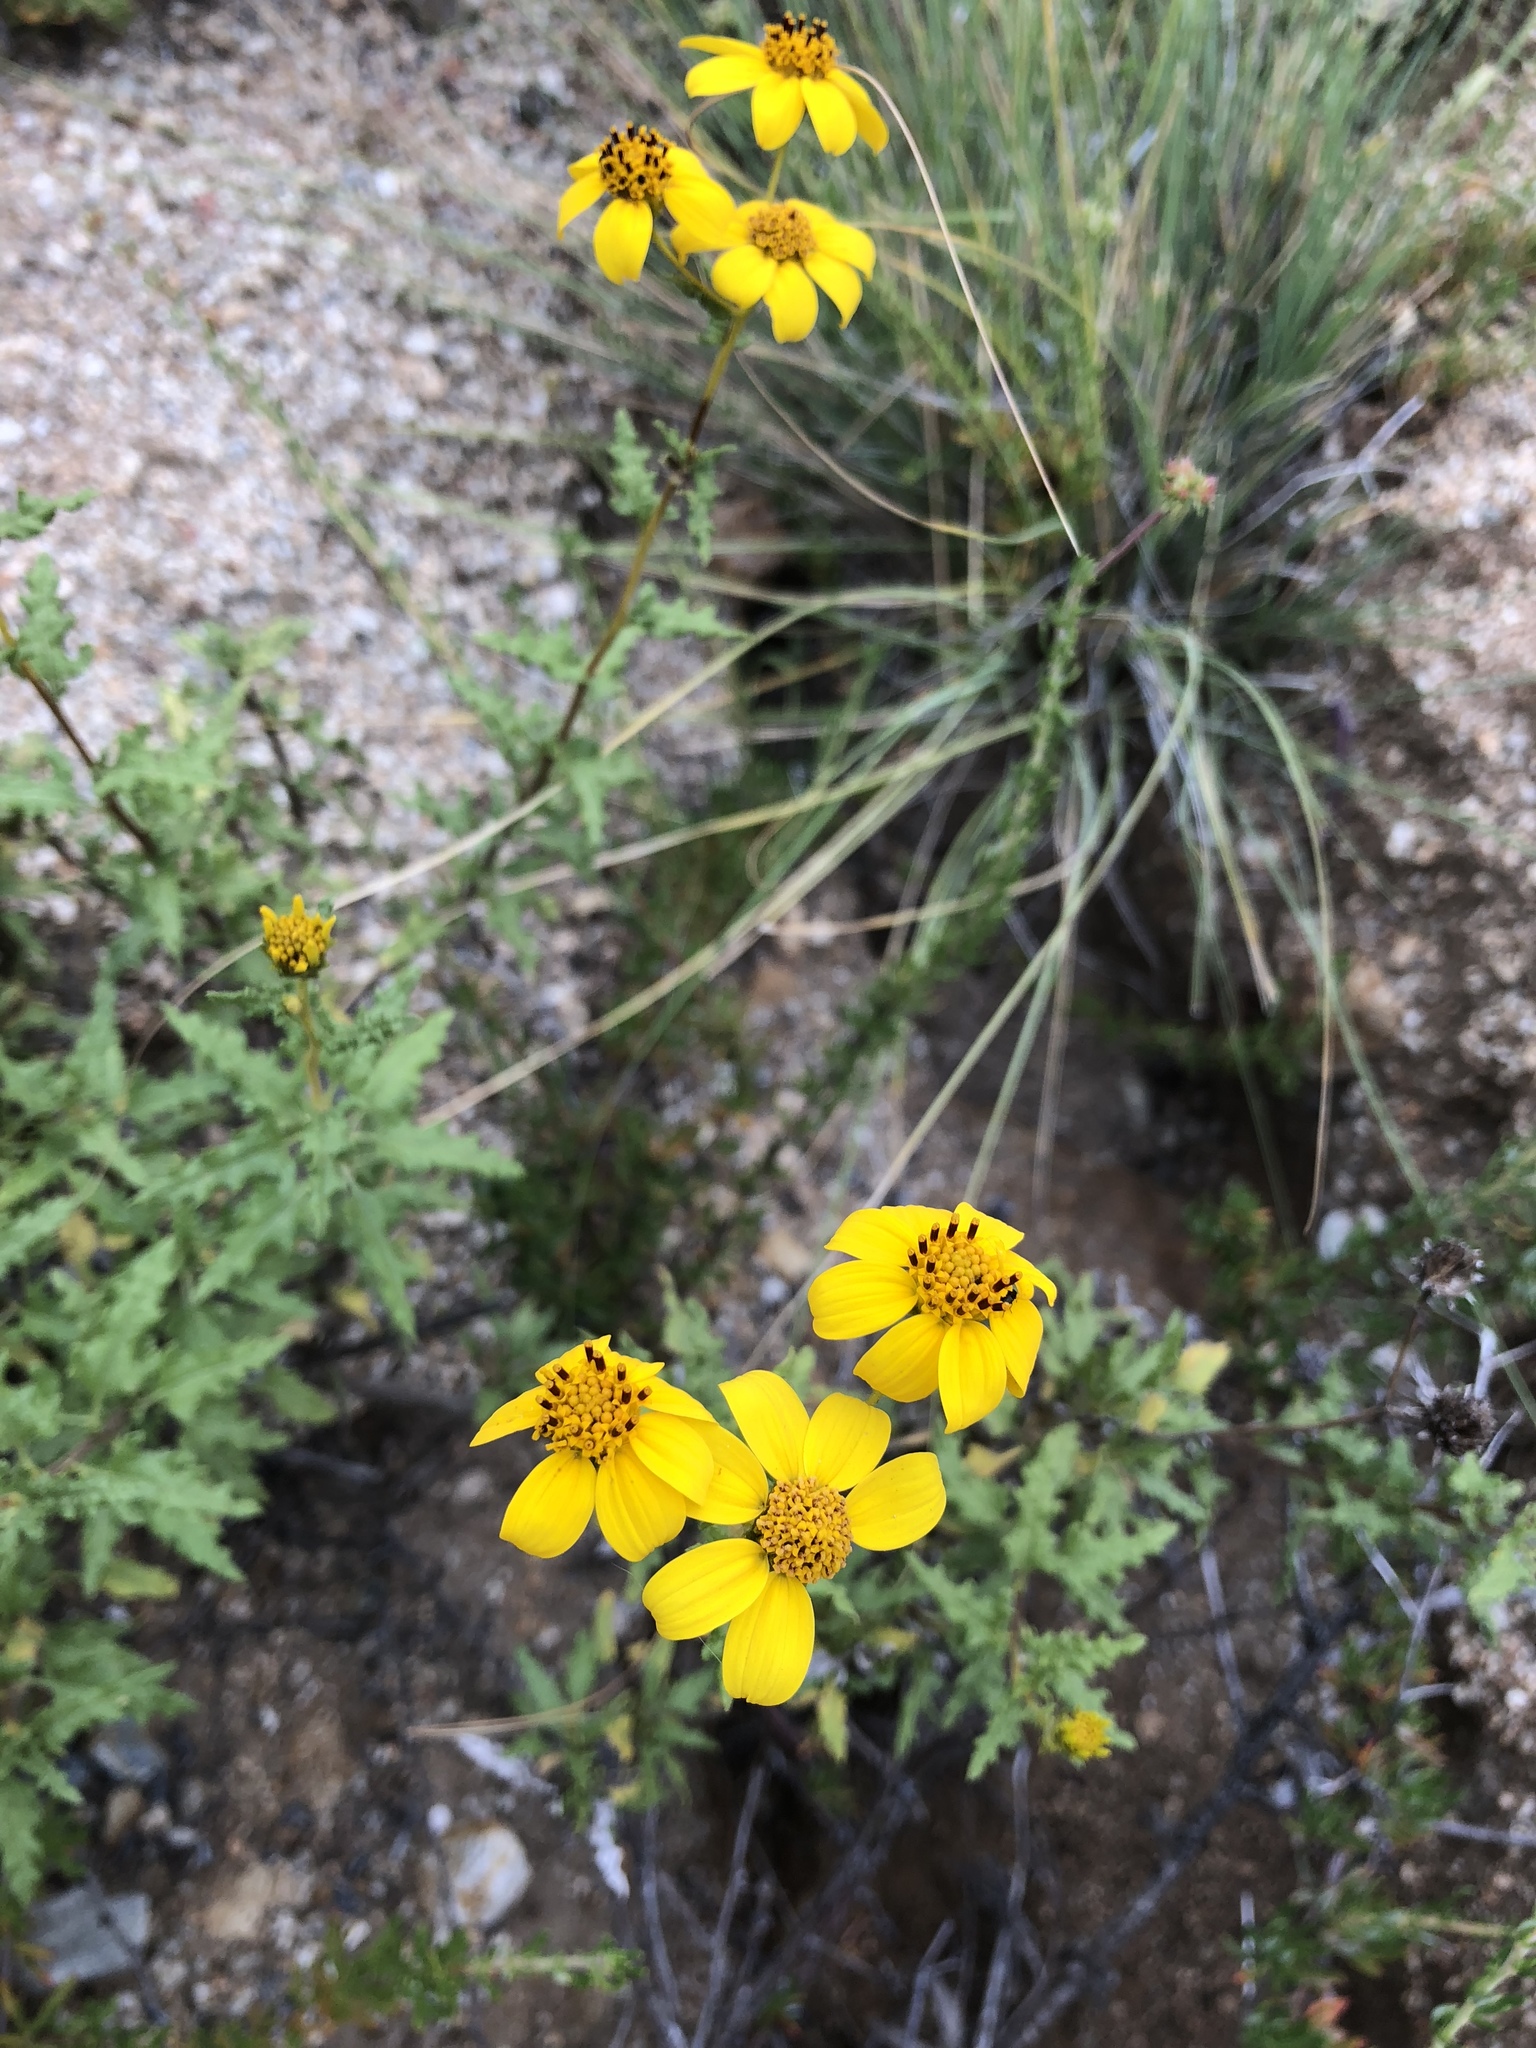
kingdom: Plantae
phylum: Tracheophyta
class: Magnoliopsida
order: Asterales
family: Asteraceae
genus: Bahiopsis
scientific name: Bahiopsis laciniata
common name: San diego county viguiera
